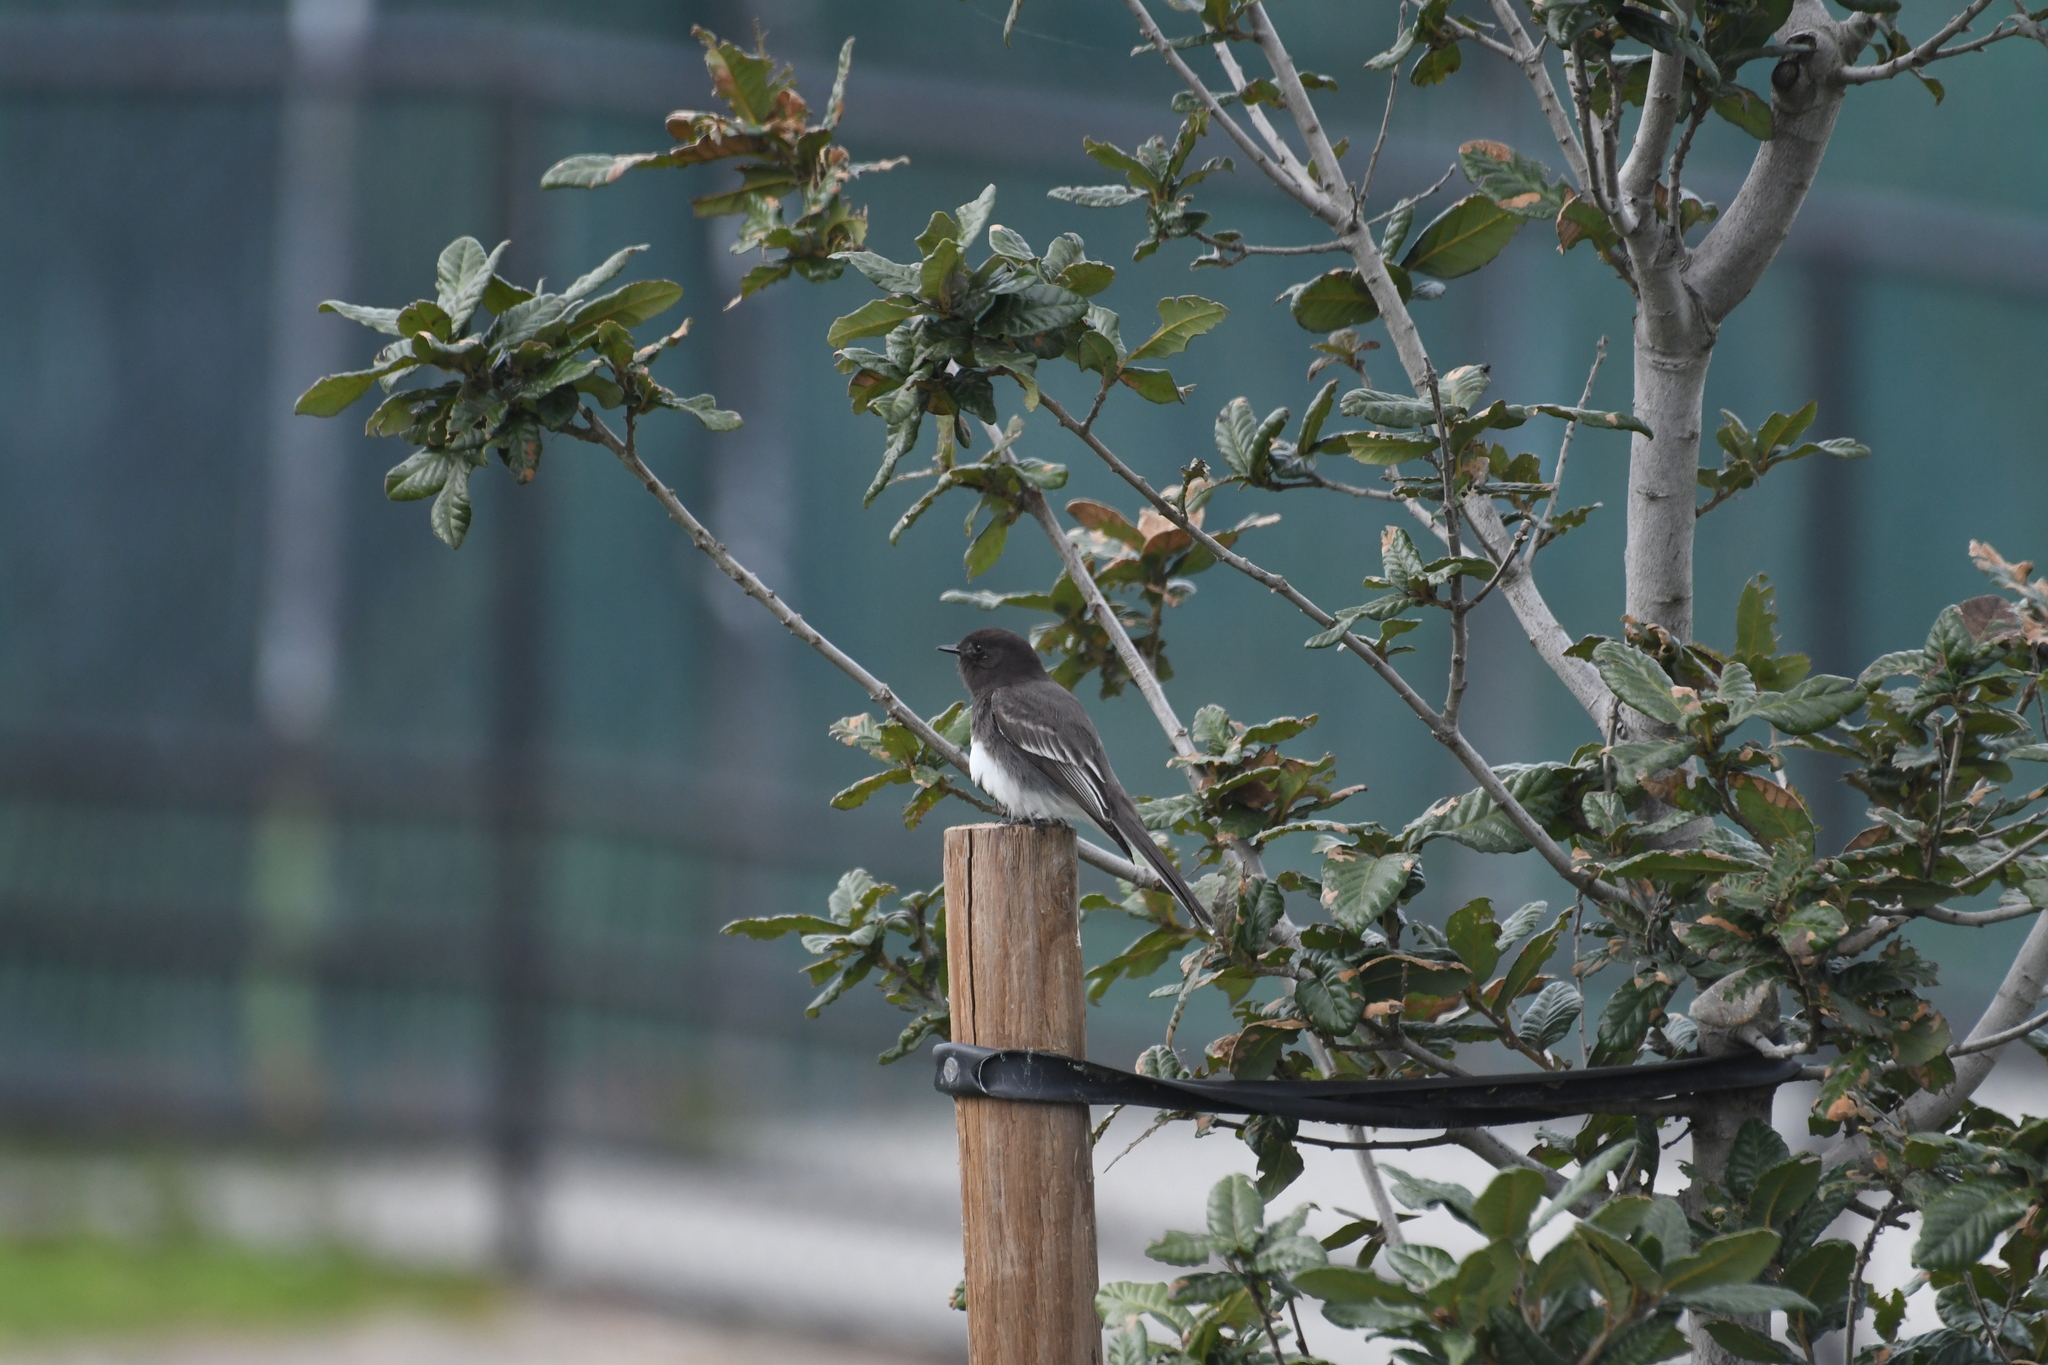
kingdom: Animalia
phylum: Chordata
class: Aves
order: Passeriformes
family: Tyrannidae
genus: Sayornis
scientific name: Sayornis nigricans
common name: Black phoebe
